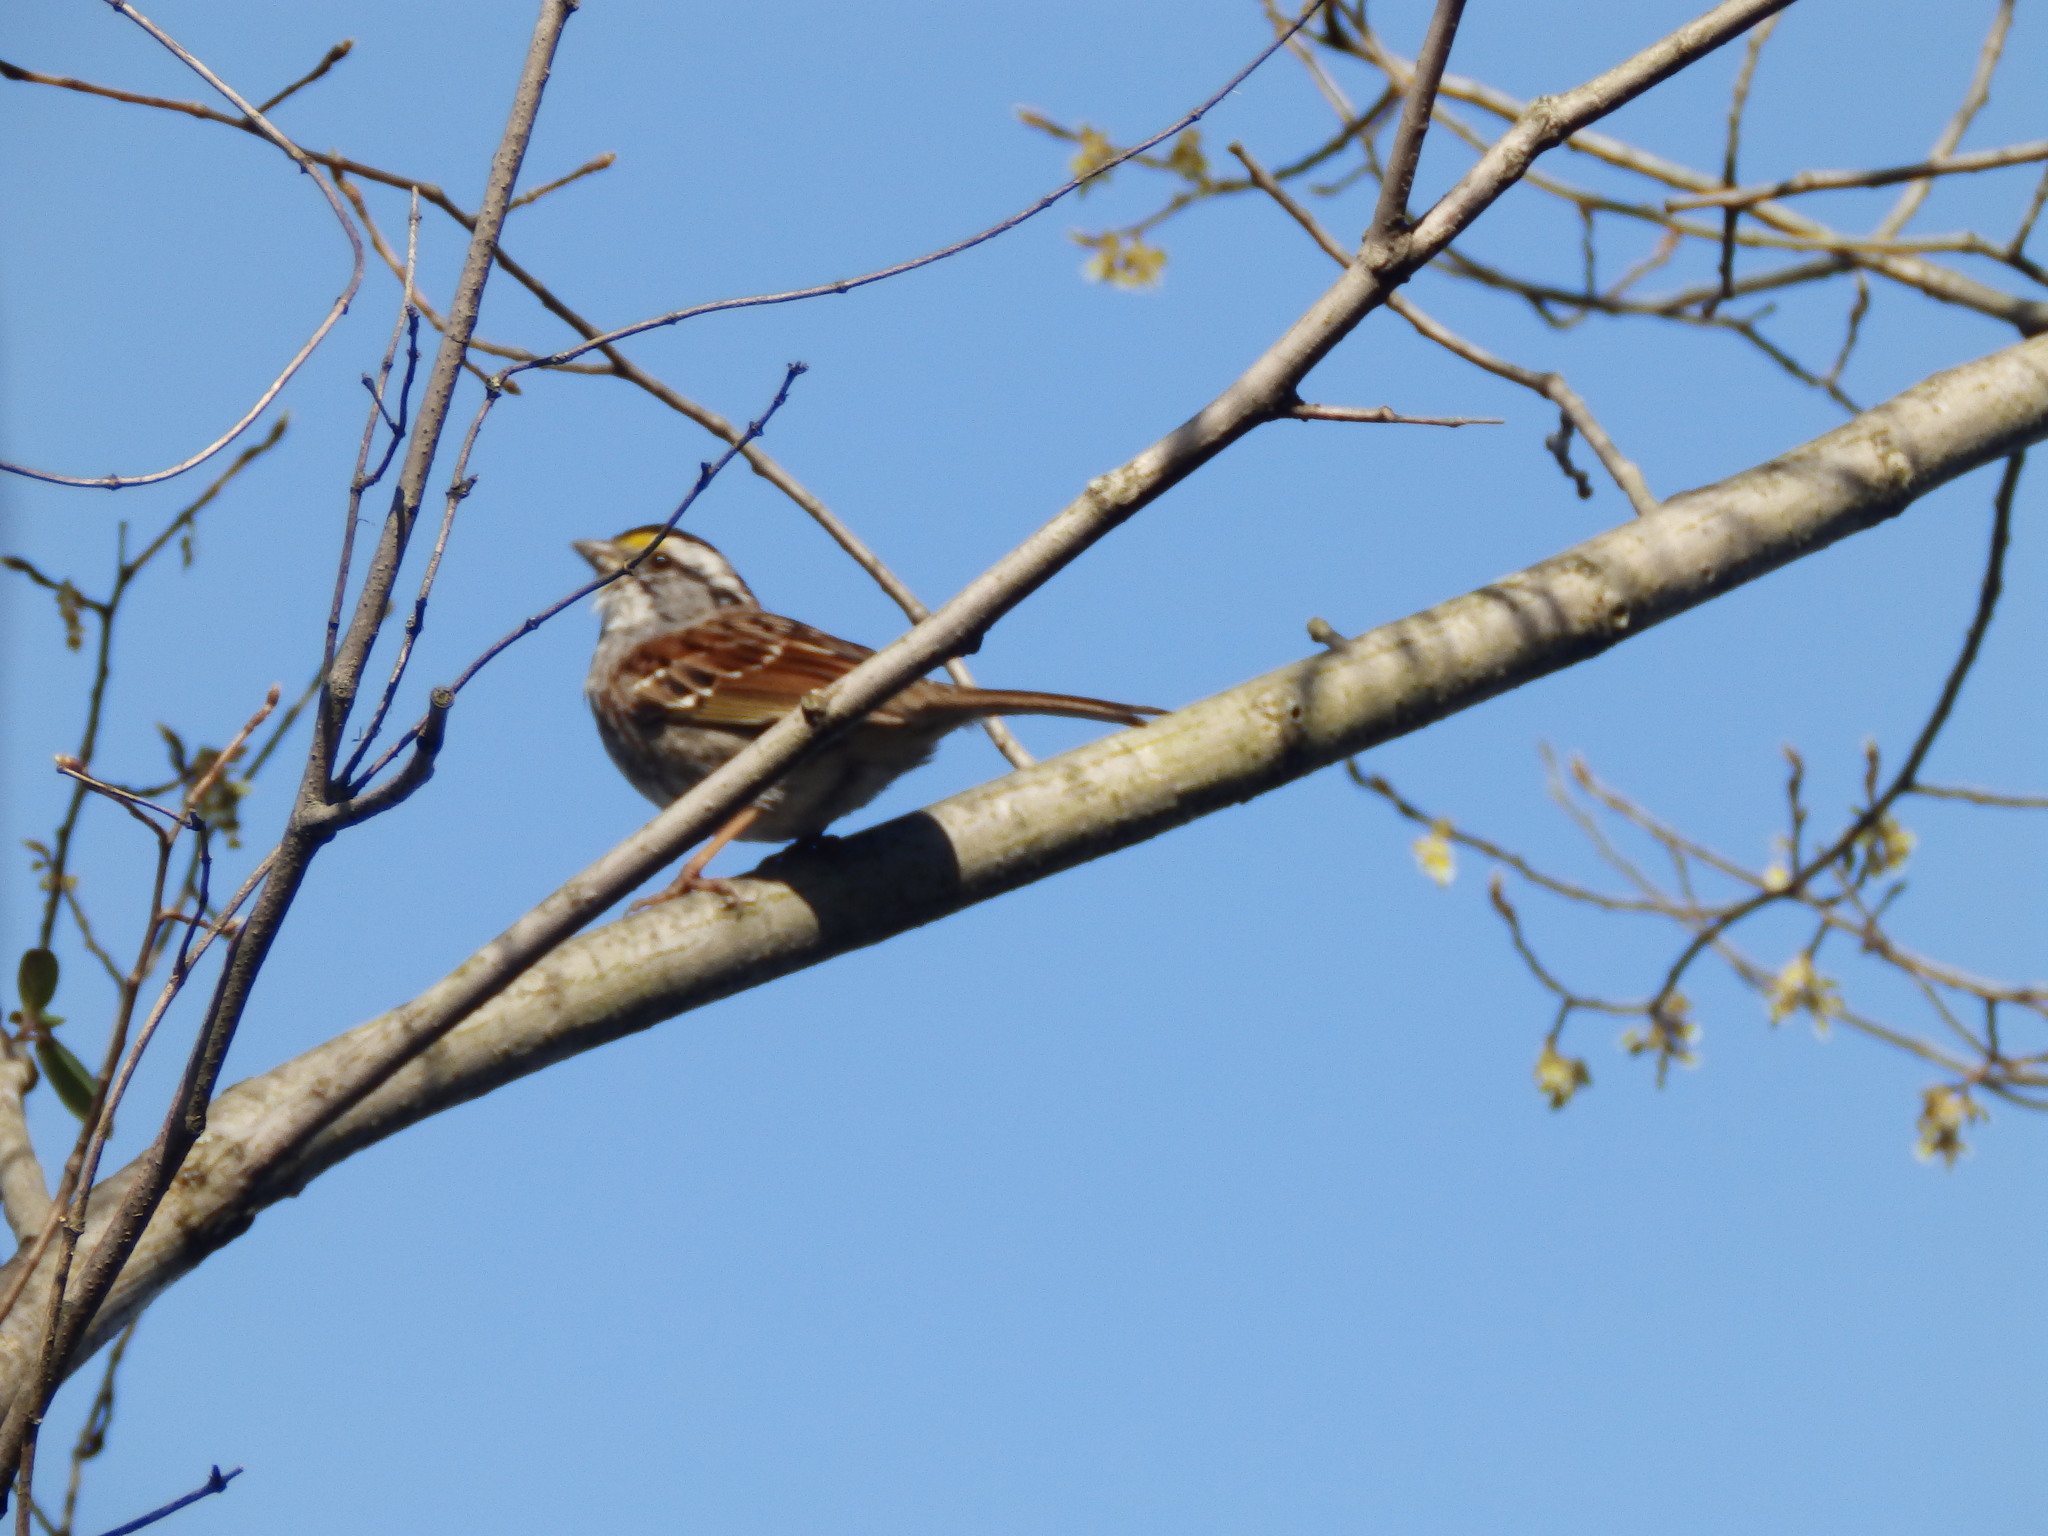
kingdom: Animalia
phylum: Chordata
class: Aves
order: Passeriformes
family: Passerellidae
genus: Zonotrichia
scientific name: Zonotrichia albicollis
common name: White-throated sparrow
